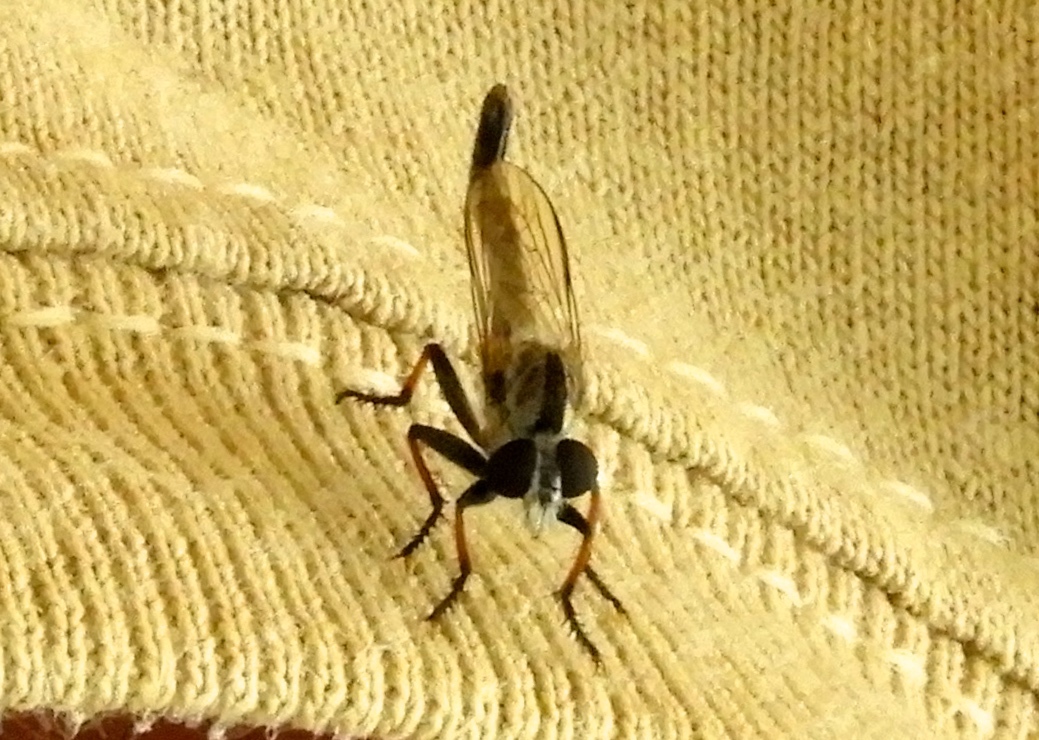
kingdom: Animalia
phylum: Arthropoda
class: Insecta
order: Diptera
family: Asilidae
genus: Efferia
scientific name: Efferia
